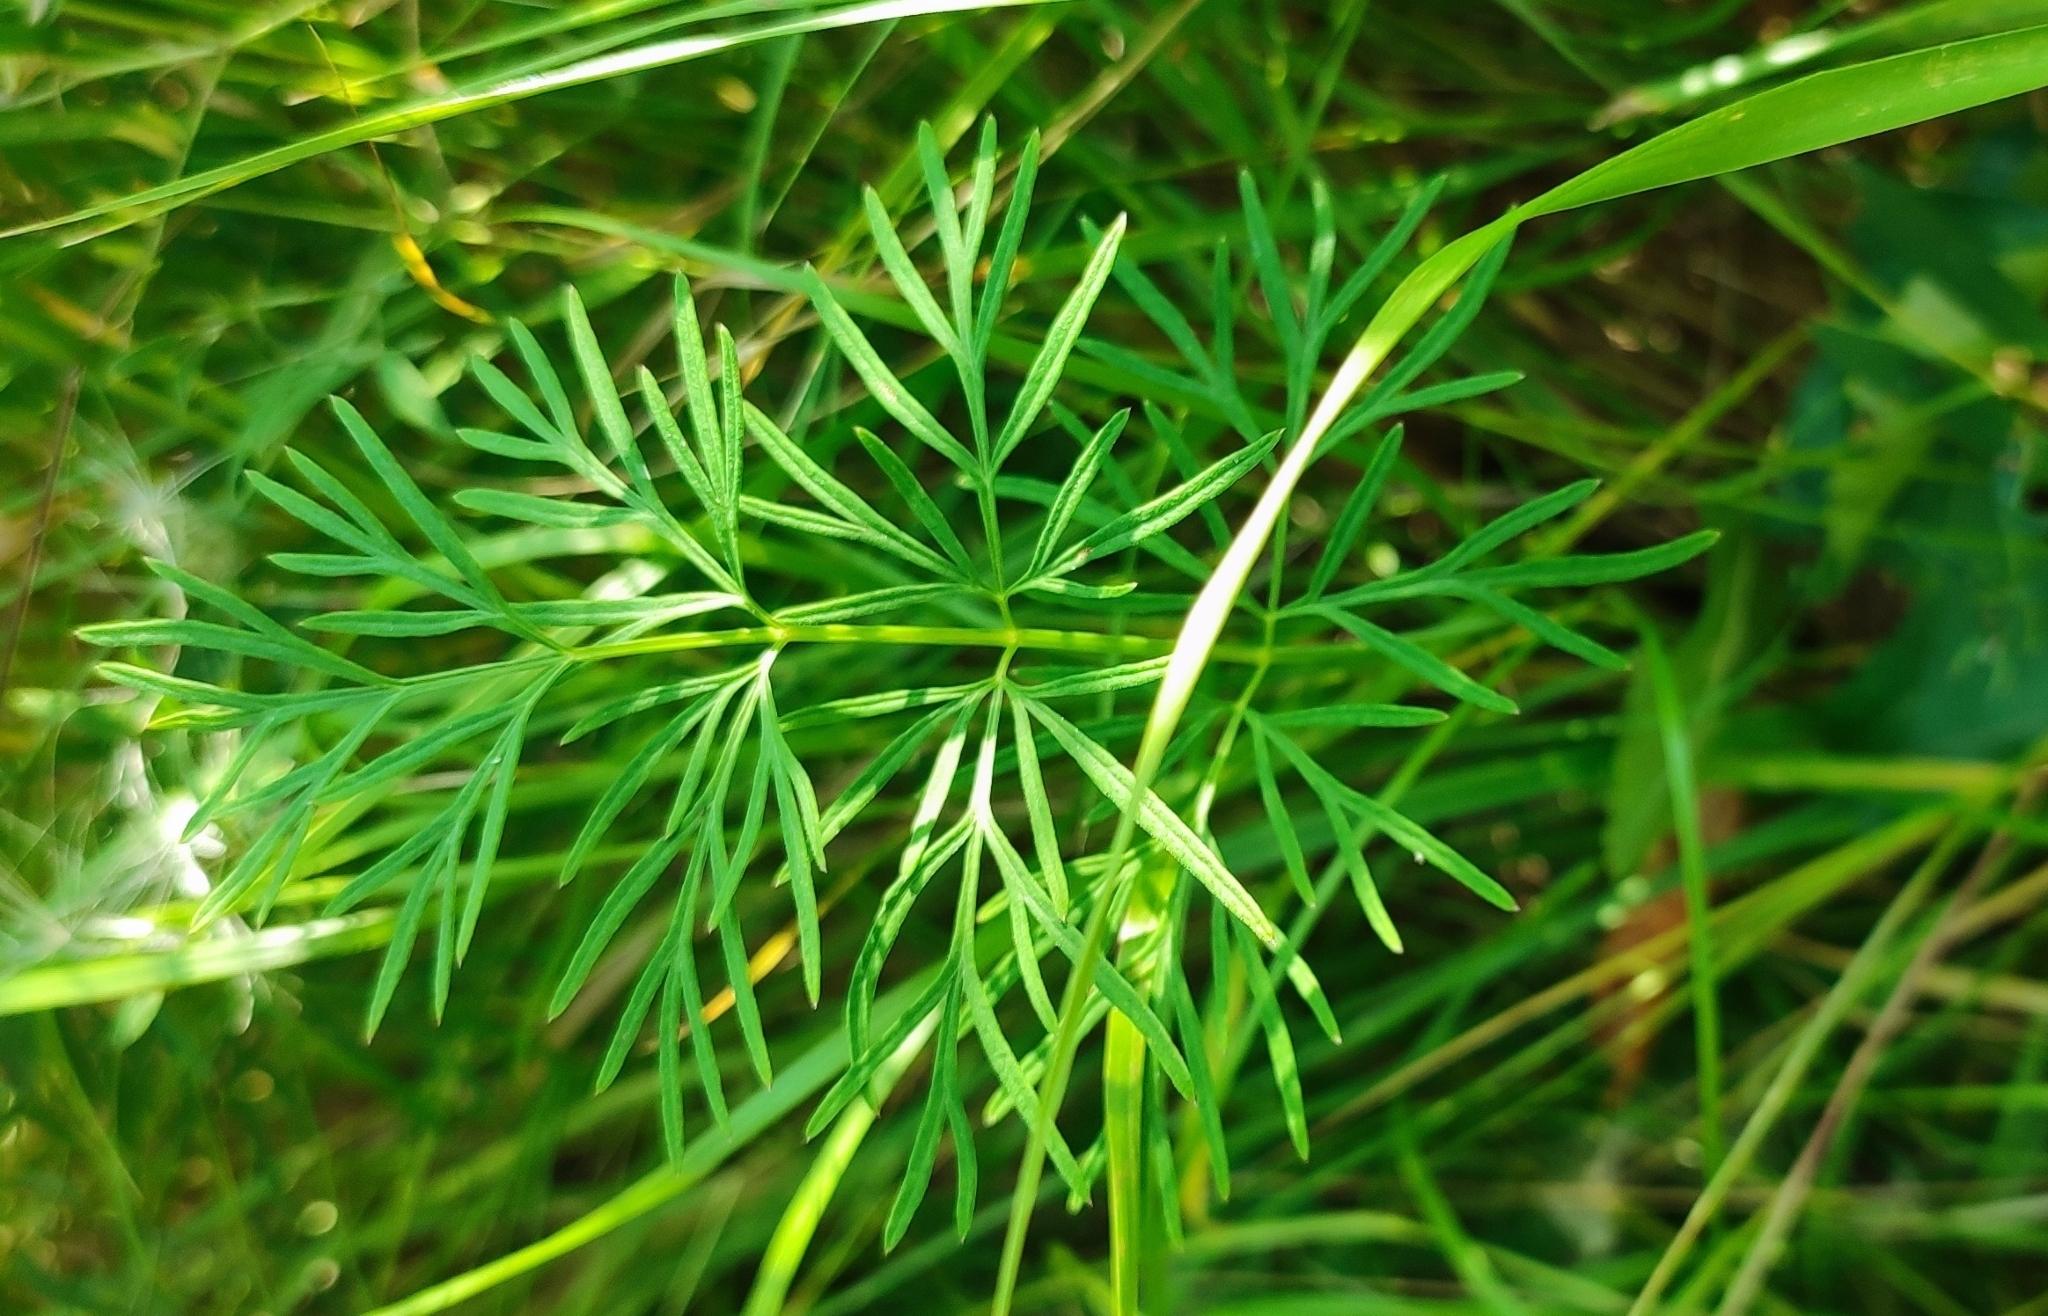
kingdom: Plantae
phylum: Tracheophyta
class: Magnoliopsida
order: Apiales
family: Apiaceae
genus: Kadenia
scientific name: Kadenia dubia
